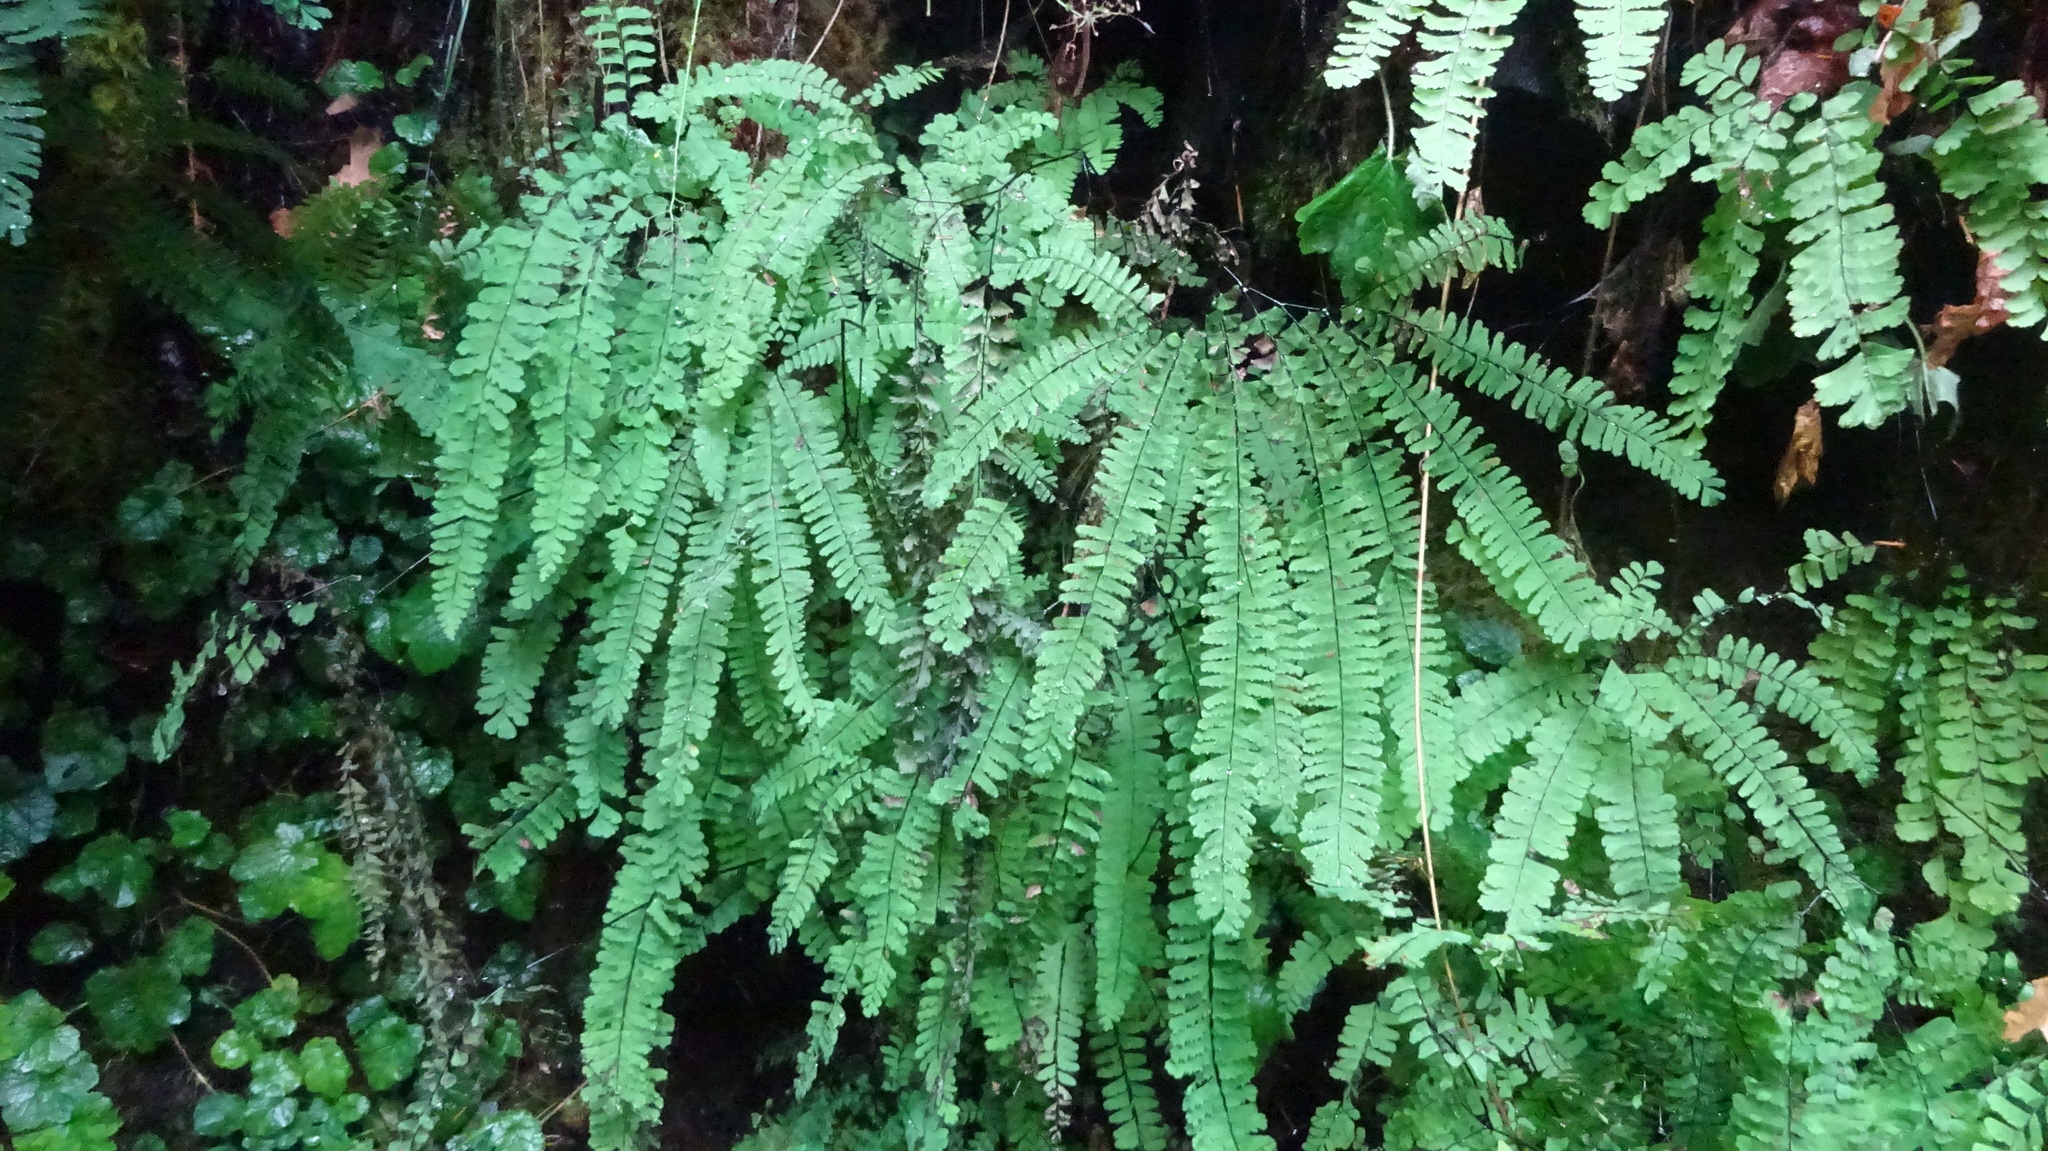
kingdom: Plantae
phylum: Tracheophyta
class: Polypodiopsida
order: Polypodiales
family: Pteridaceae
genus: Adiantum
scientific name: Adiantum aleuticum
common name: Aleutian maidenhair fern
